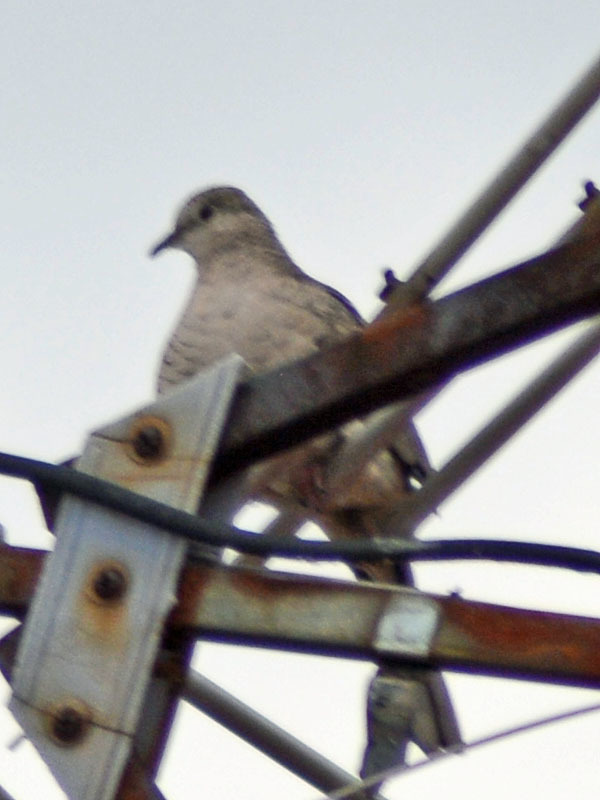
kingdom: Animalia
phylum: Chordata
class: Aves
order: Columbiformes
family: Columbidae
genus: Columbina
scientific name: Columbina inca
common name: Inca dove
